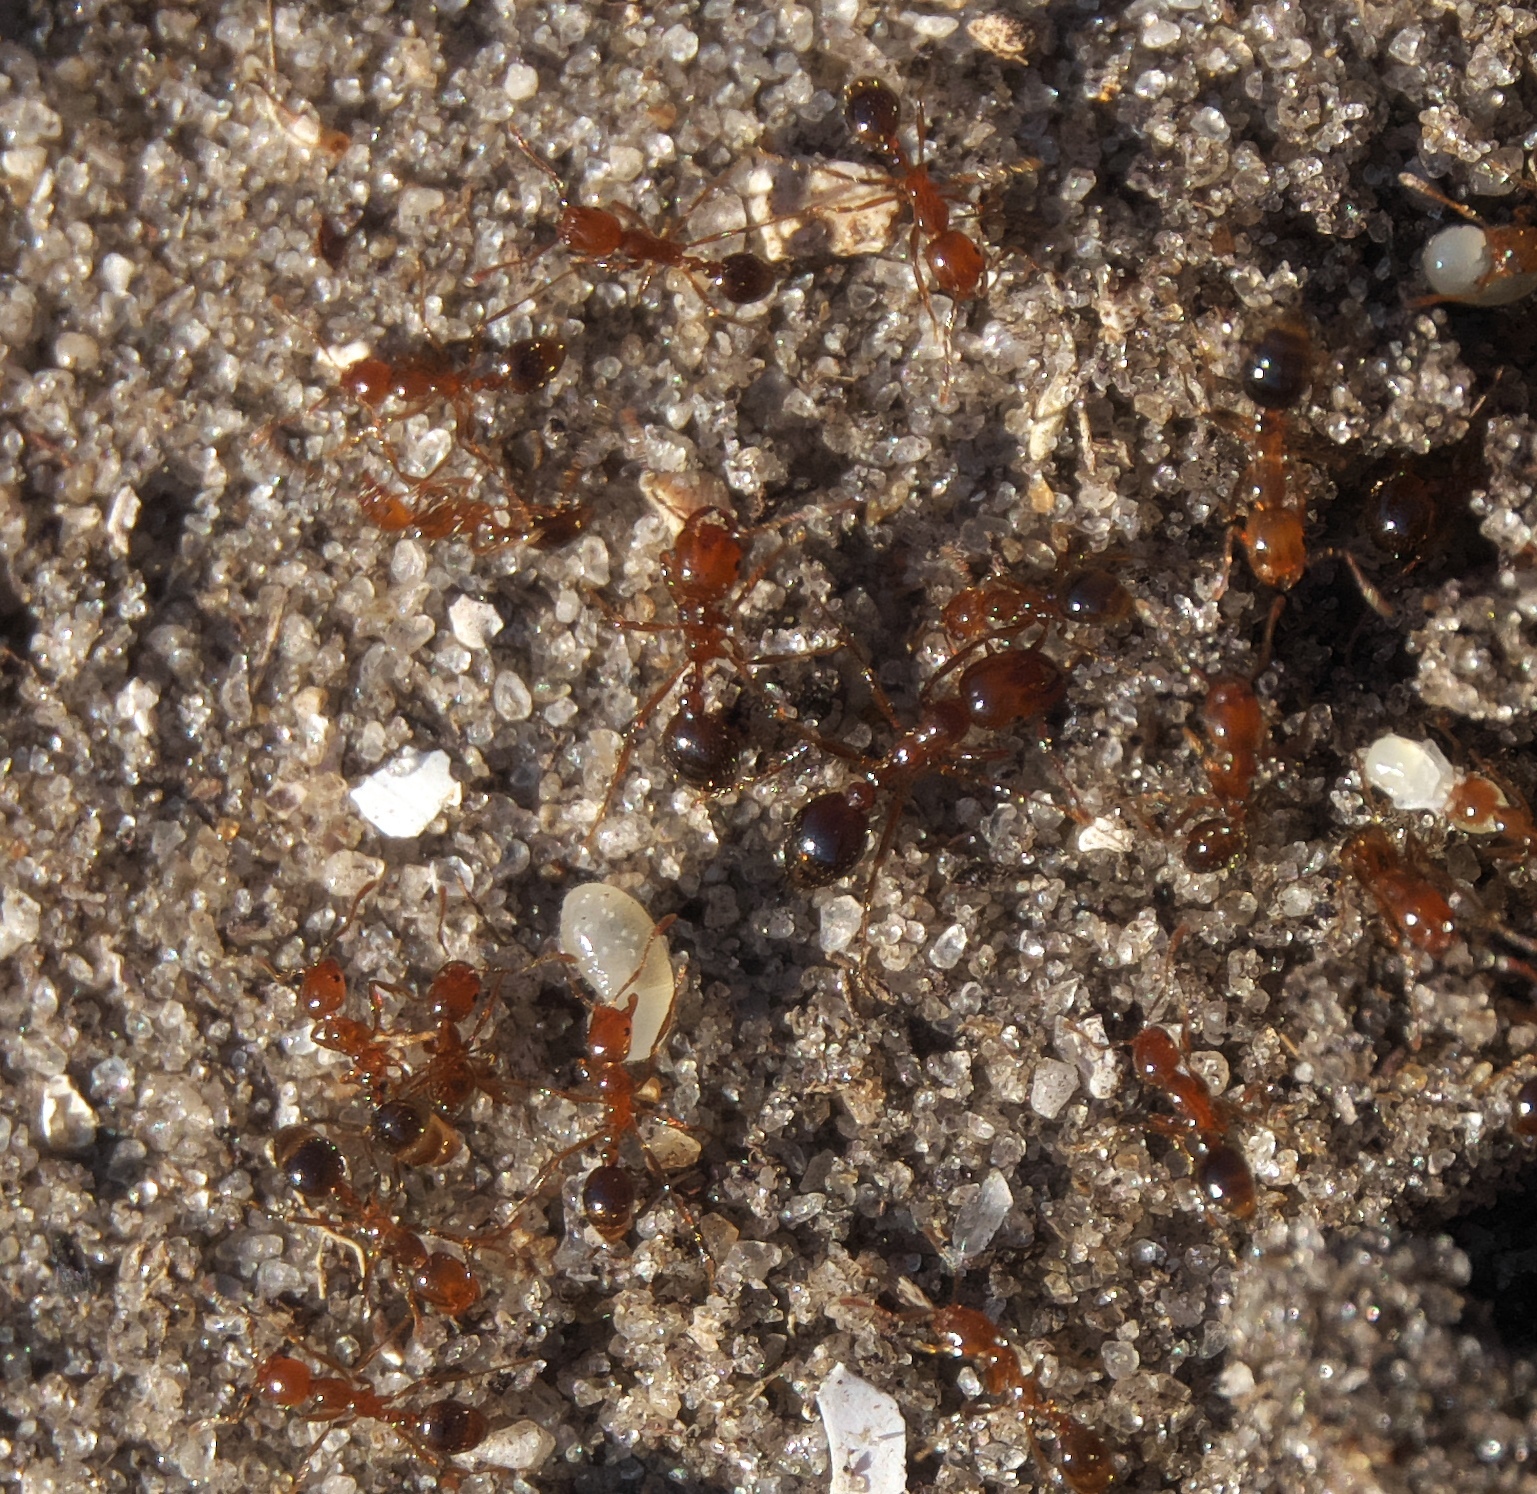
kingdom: Animalia
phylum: Arthropoda
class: Insecta
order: Hymenoptera
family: Formicidae
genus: Solenopsis
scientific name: Solenopsis invicta
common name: Red imported fire ant
